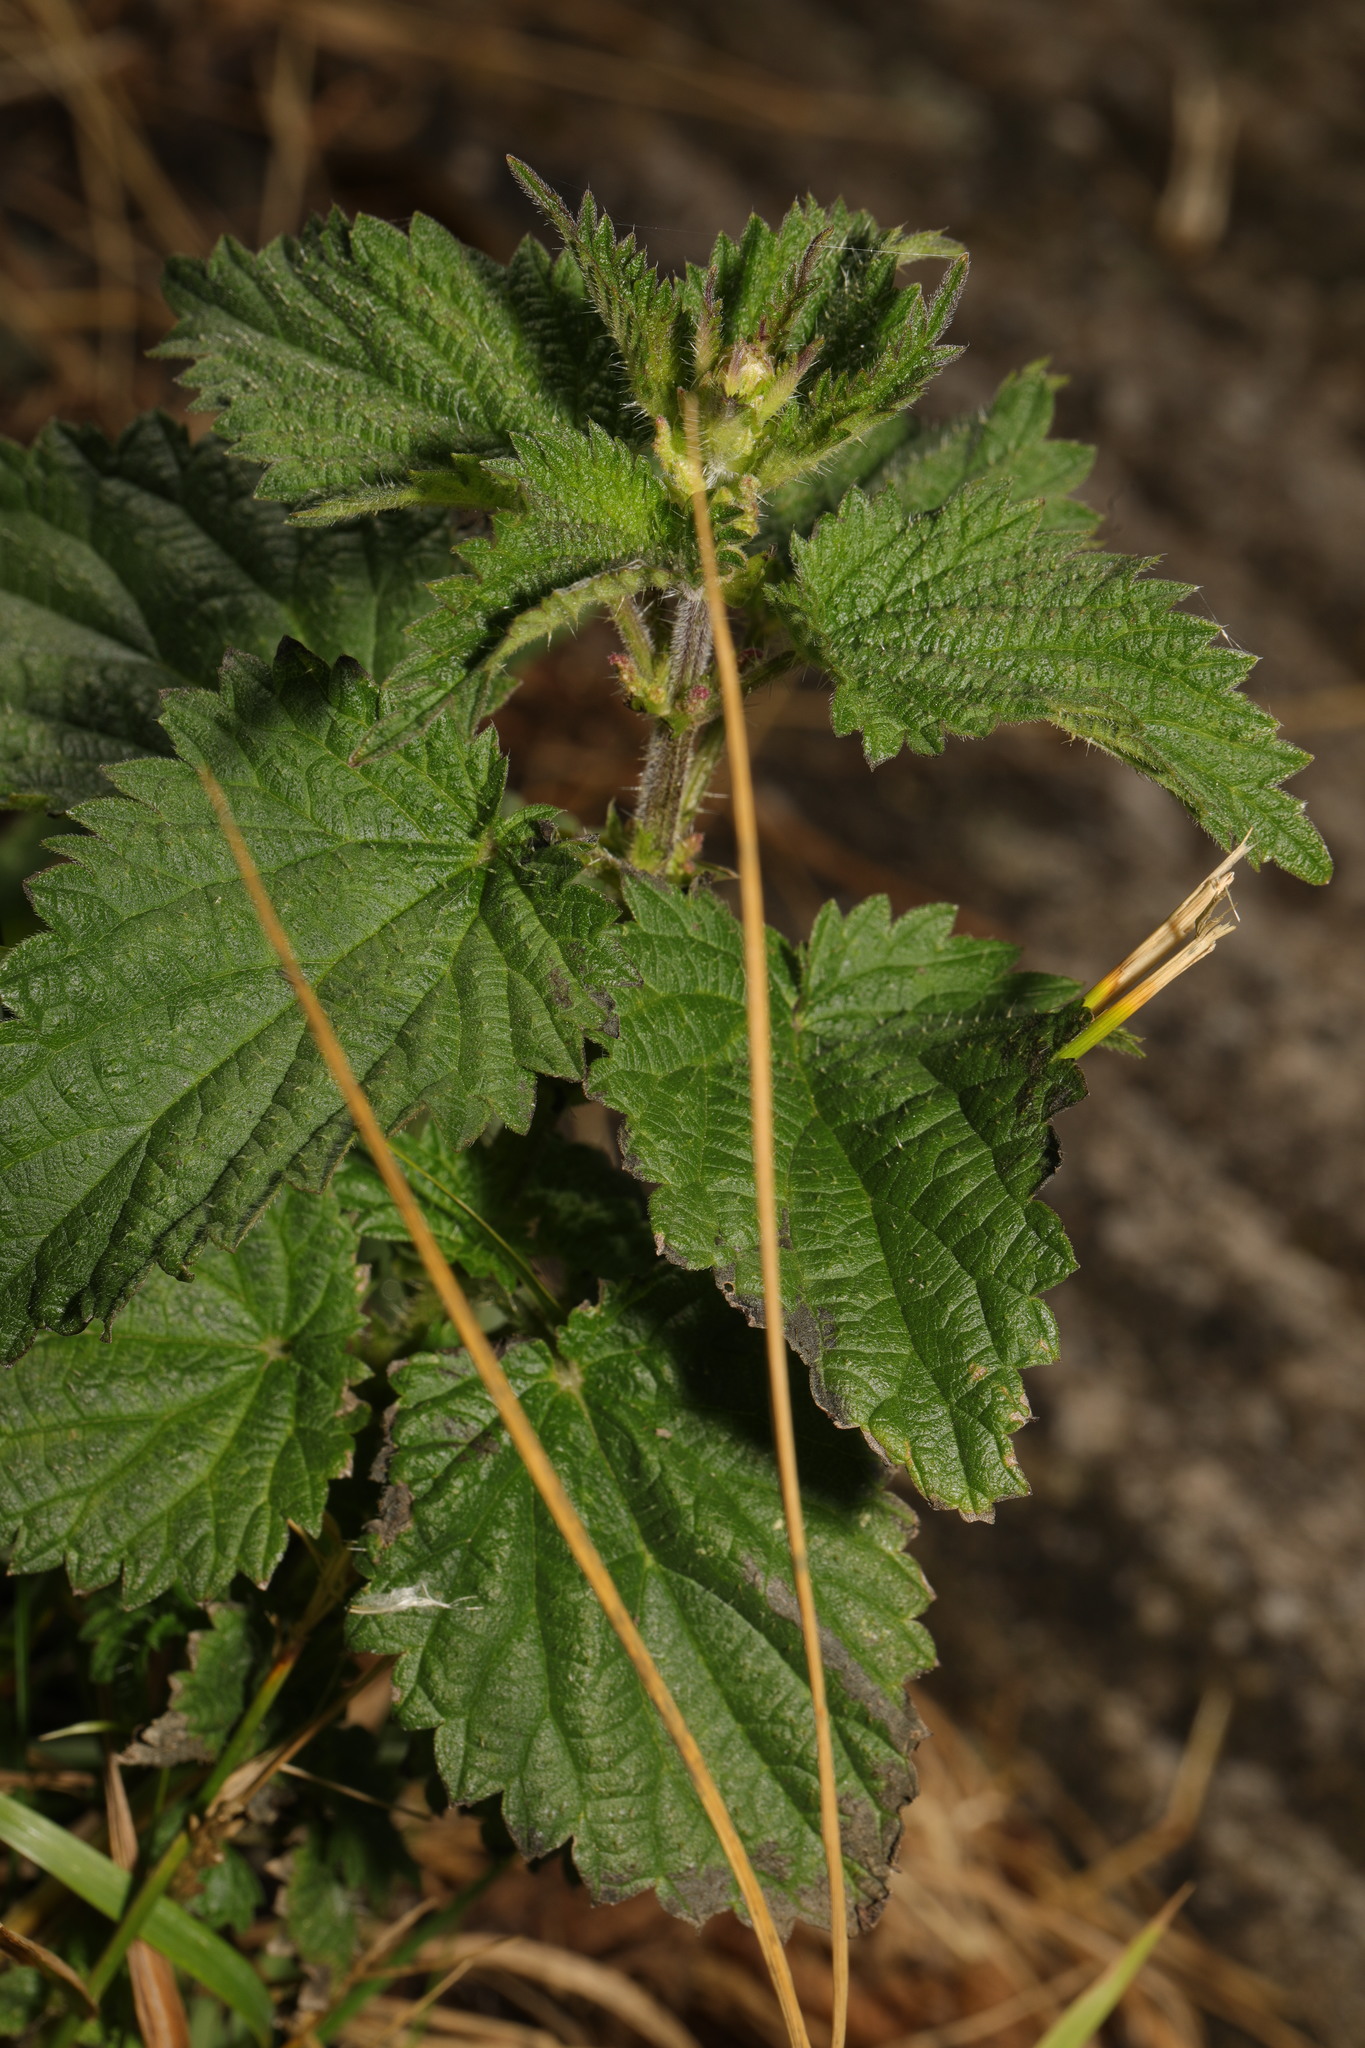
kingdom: Plantae
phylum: Tracheophyta
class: Magnoliopsida
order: Rosales
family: Urticaceae
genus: Urtica
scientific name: Urtica dioica
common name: Common nettle
